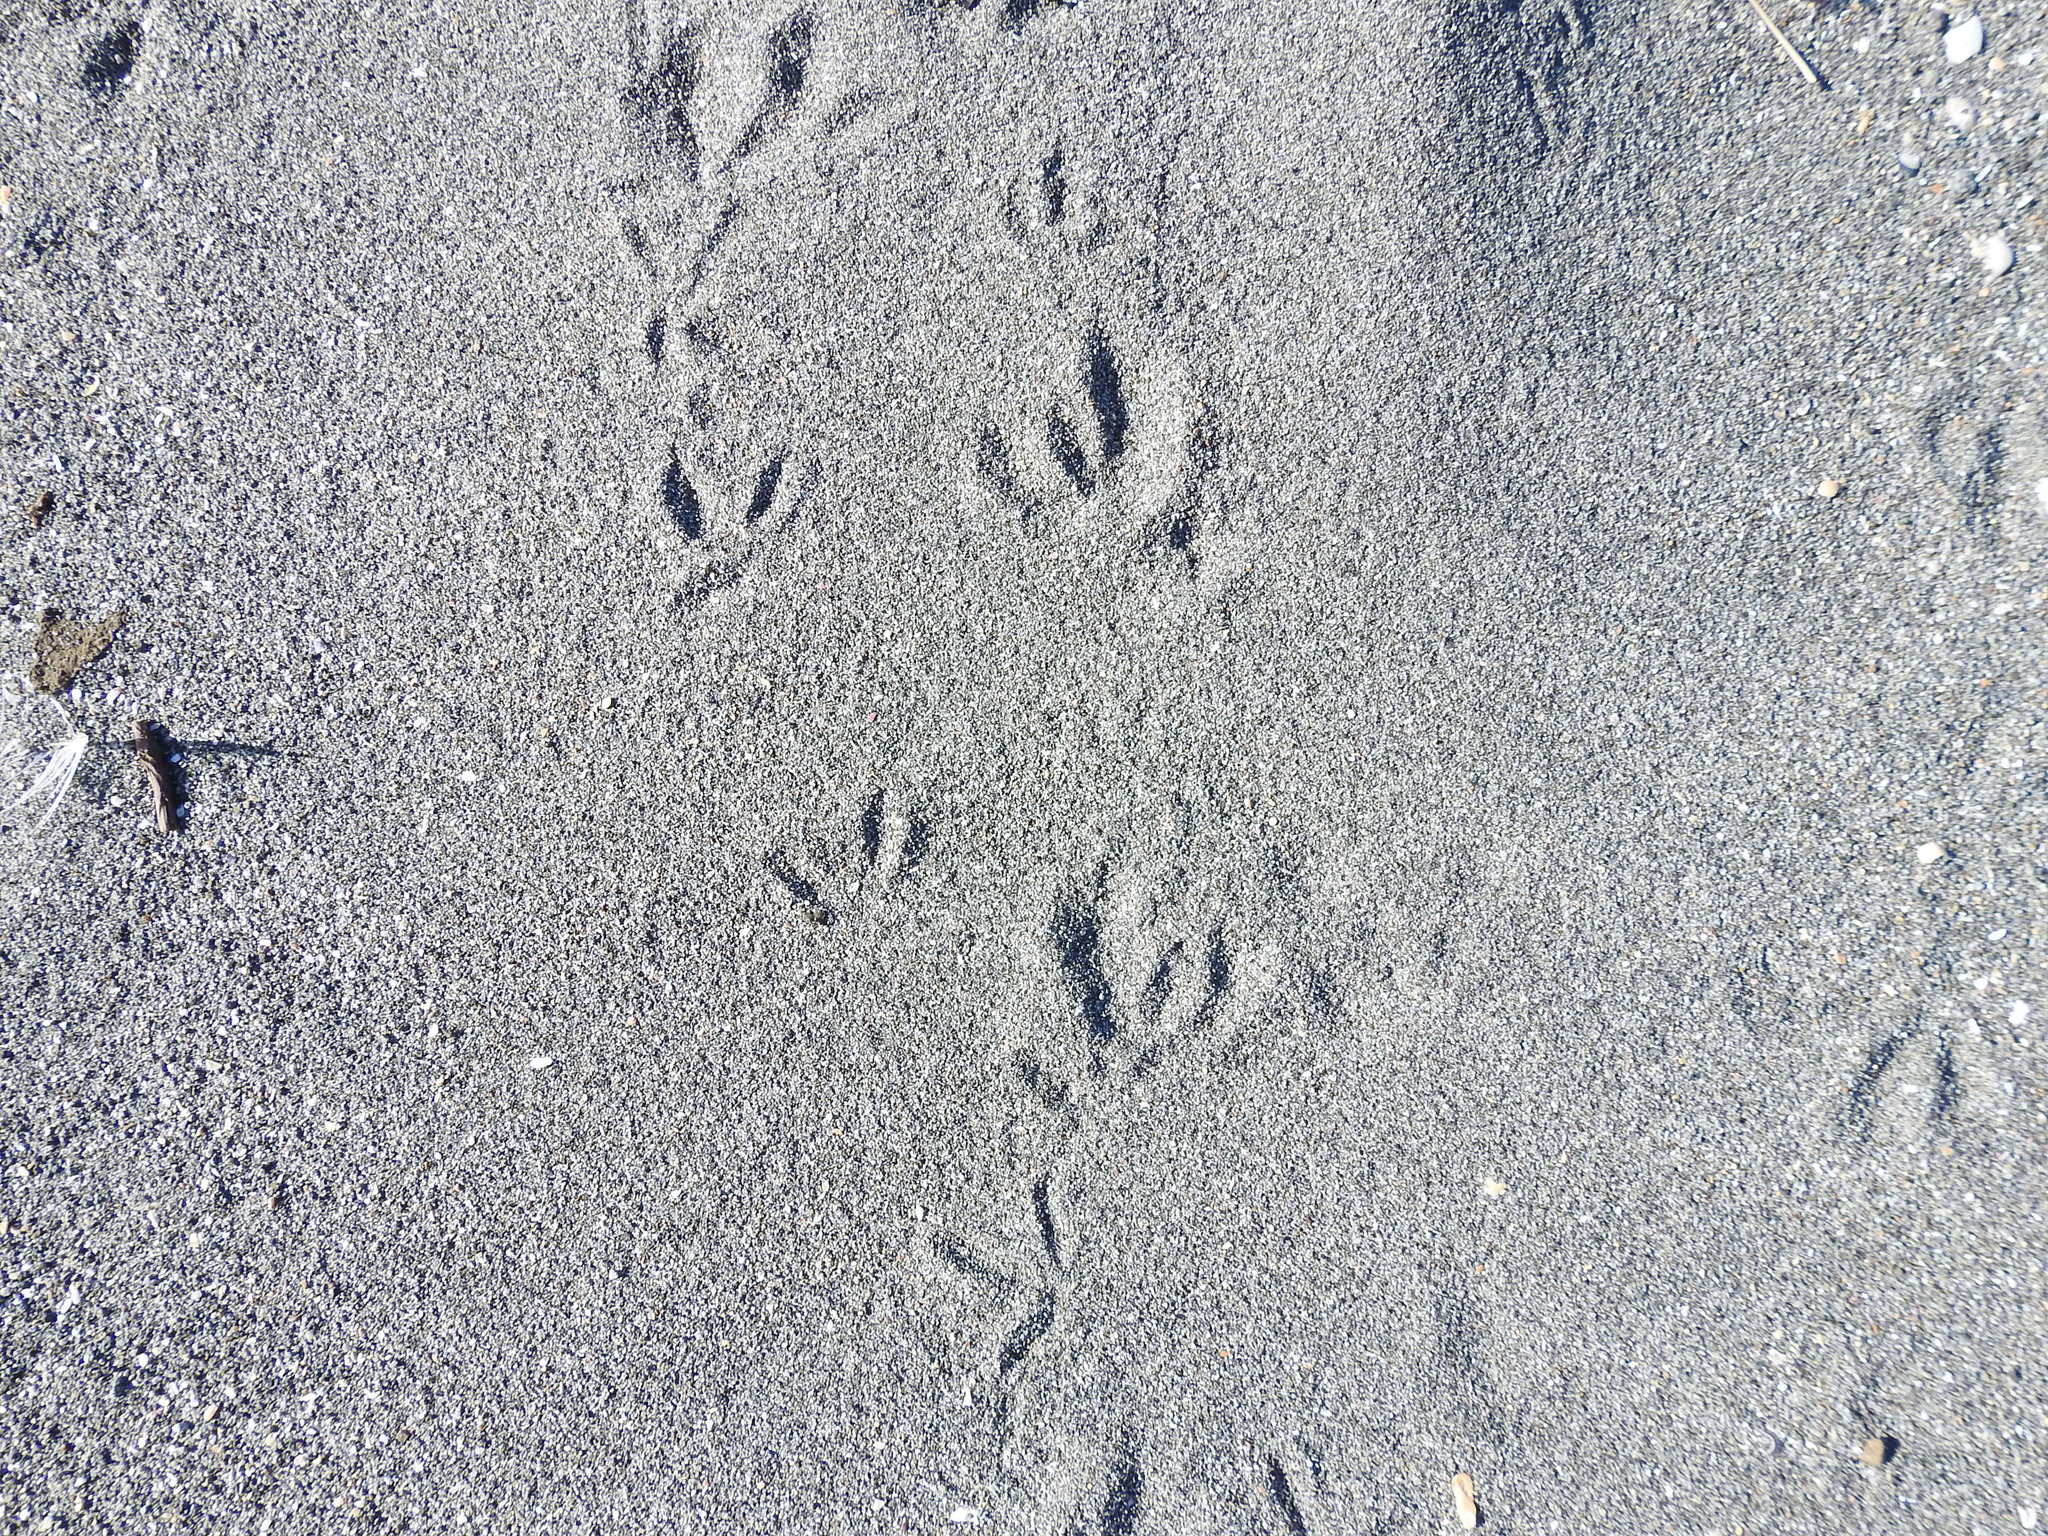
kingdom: Animalia
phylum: Chordata
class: Aves
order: Charadriiformes
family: Charadriidae
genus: Anarhynchus
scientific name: Anarhynchus
